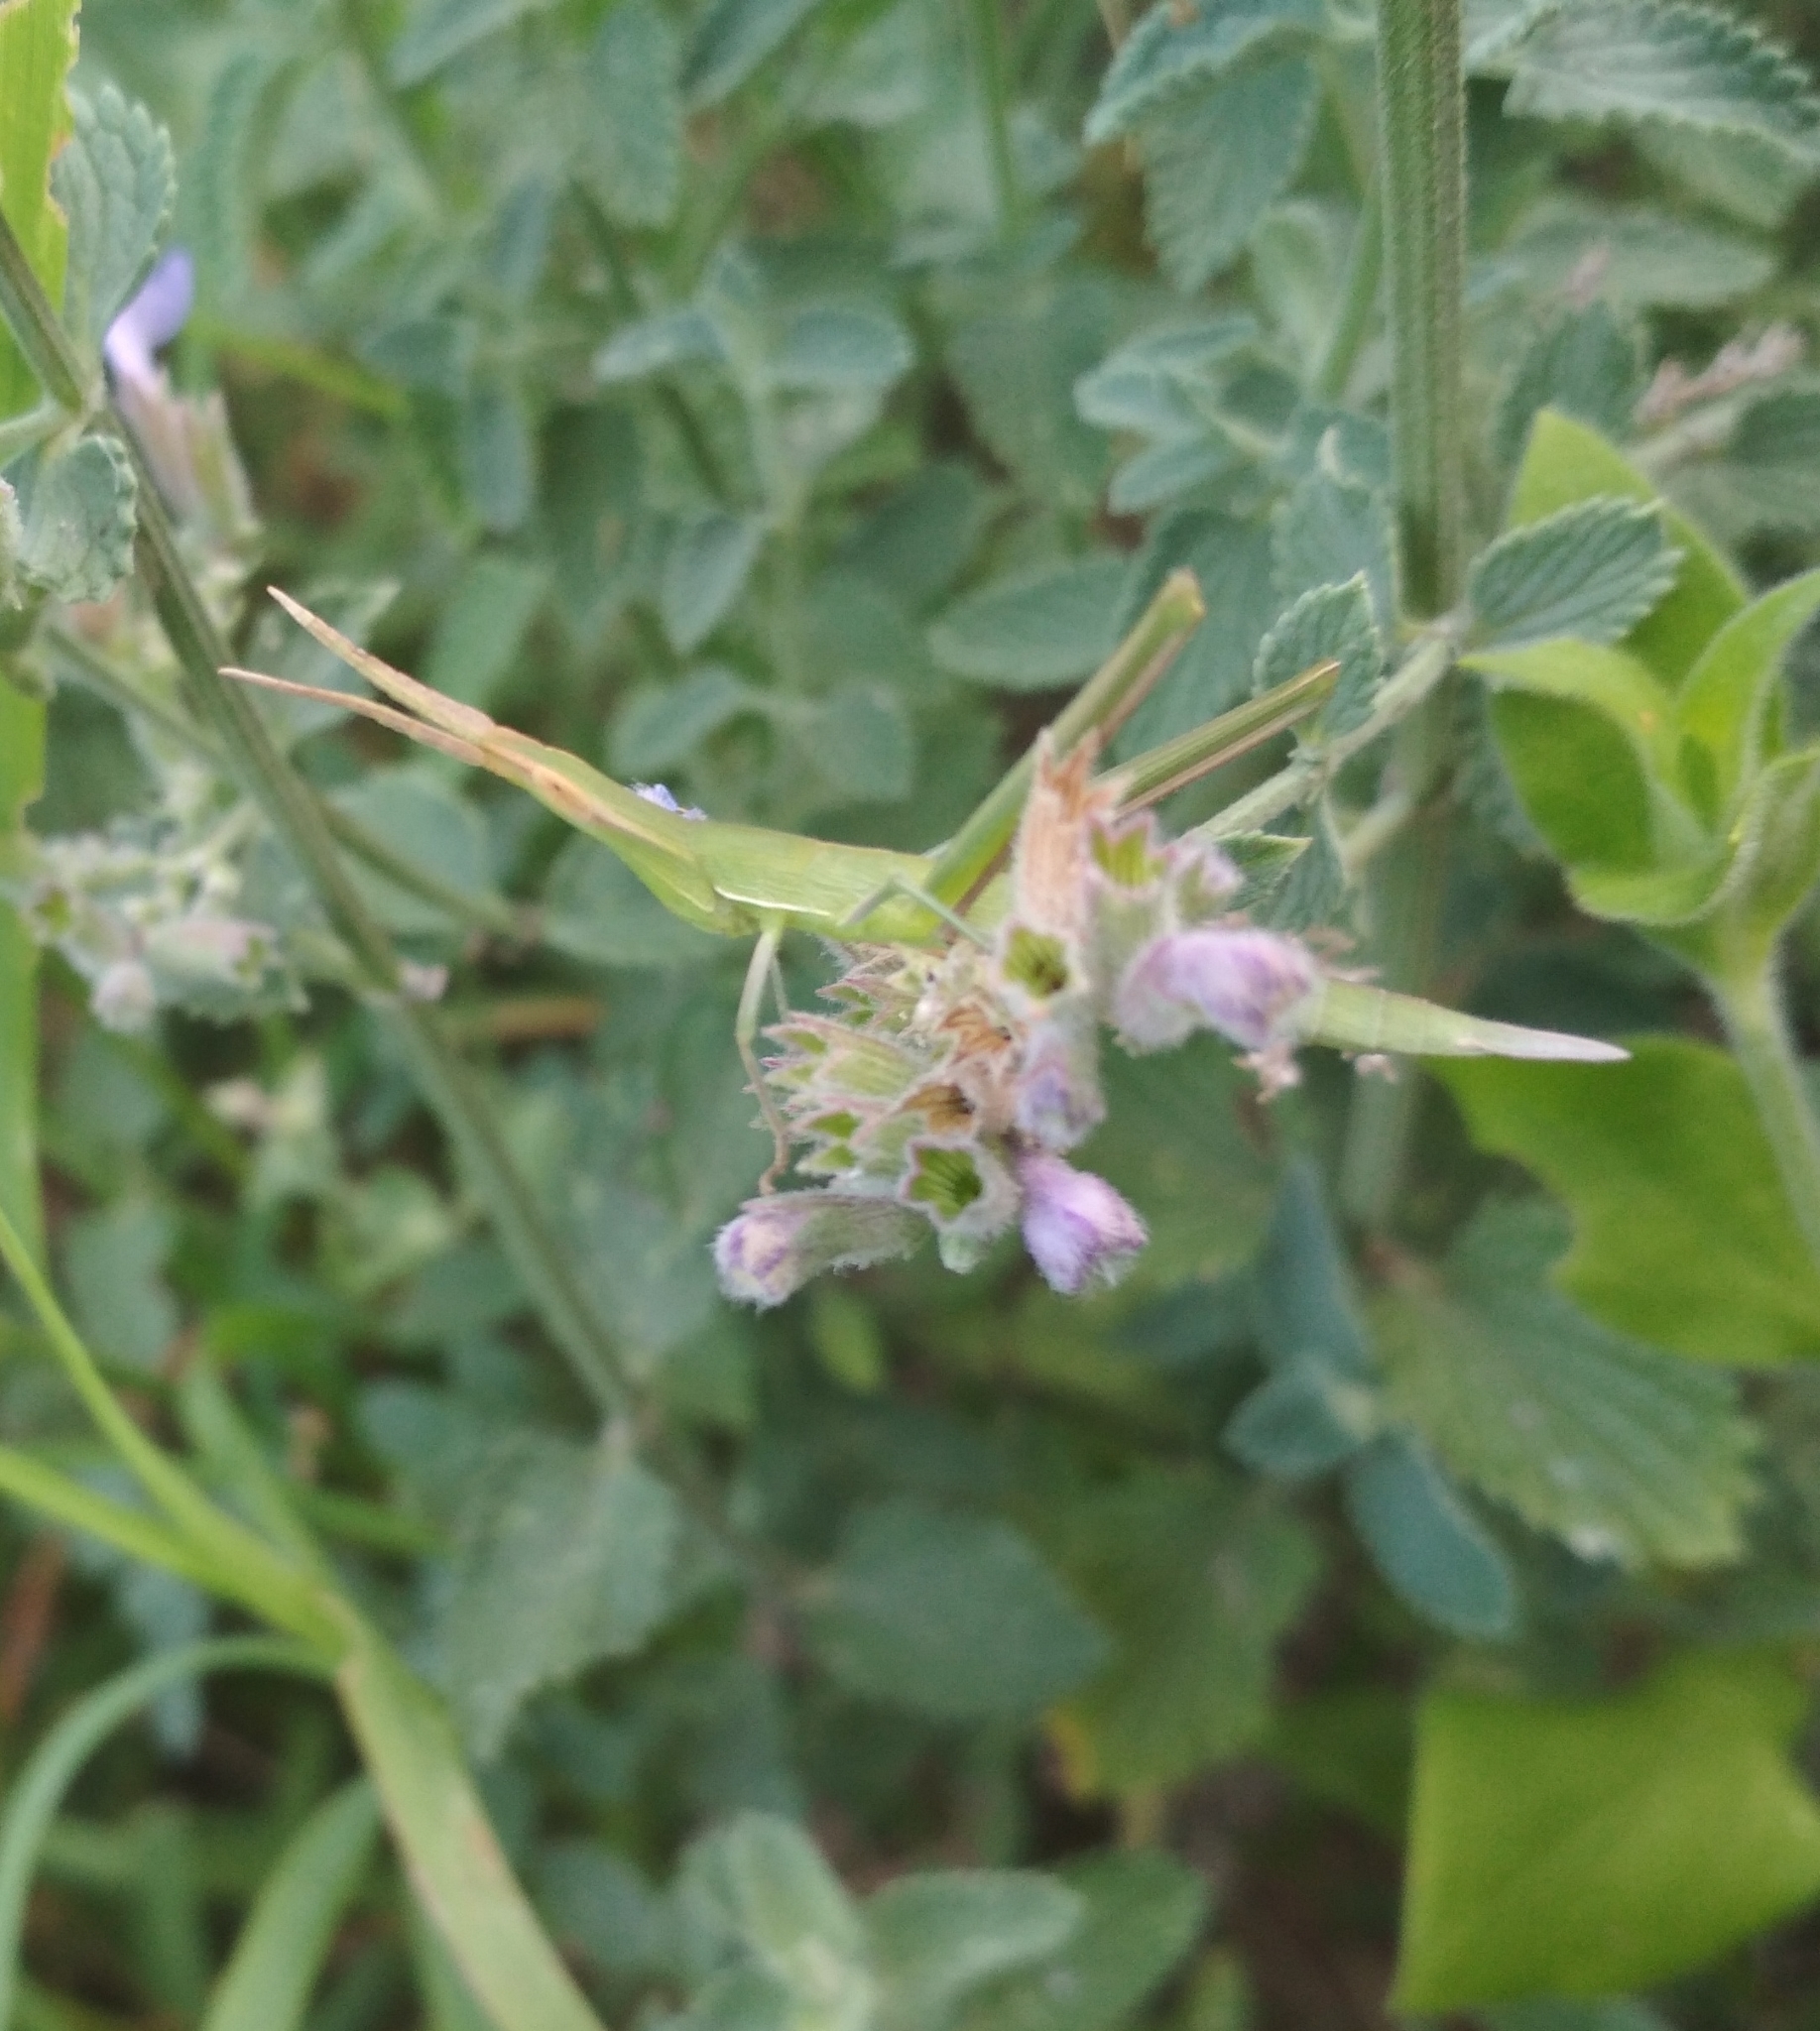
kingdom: Animalia
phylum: Arthropoda
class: Insecta
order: Orthoptera
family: Acrididae
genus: Acrida
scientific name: Acrida ungarica
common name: Common cone-headed grasshopper
